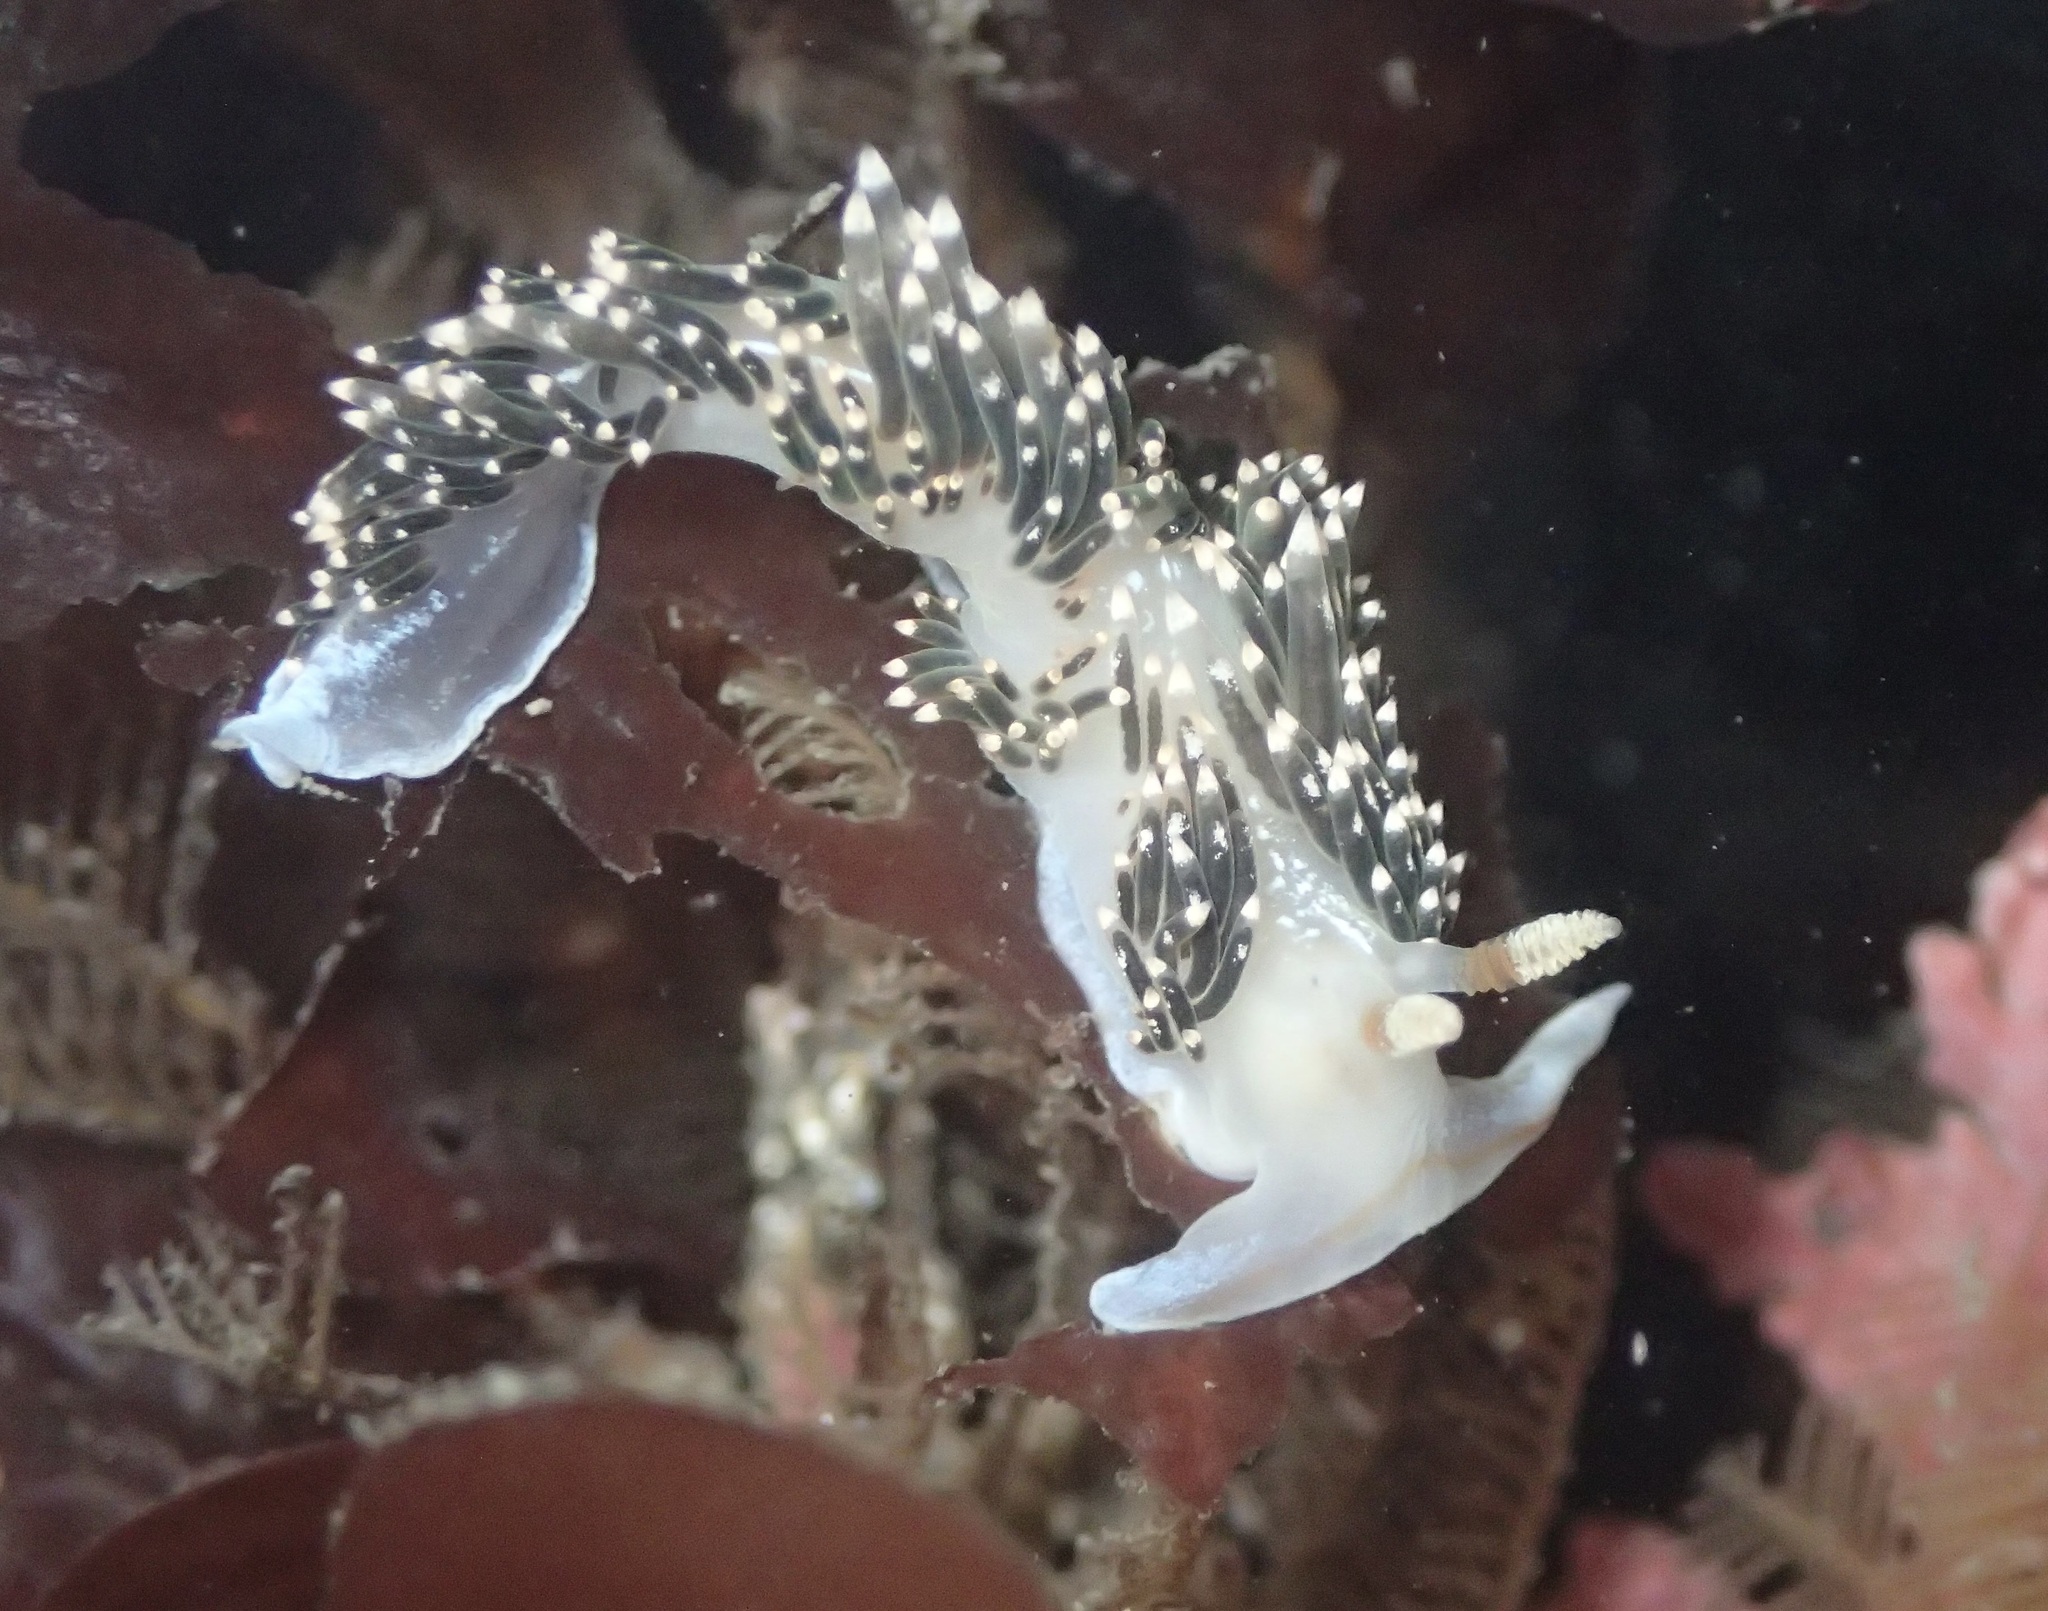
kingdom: Animalia
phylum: Mollusca
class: Gastropoda
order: Nudibranchia
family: Facelinidae
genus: Phidiana
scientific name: Phidiana hiltoni
